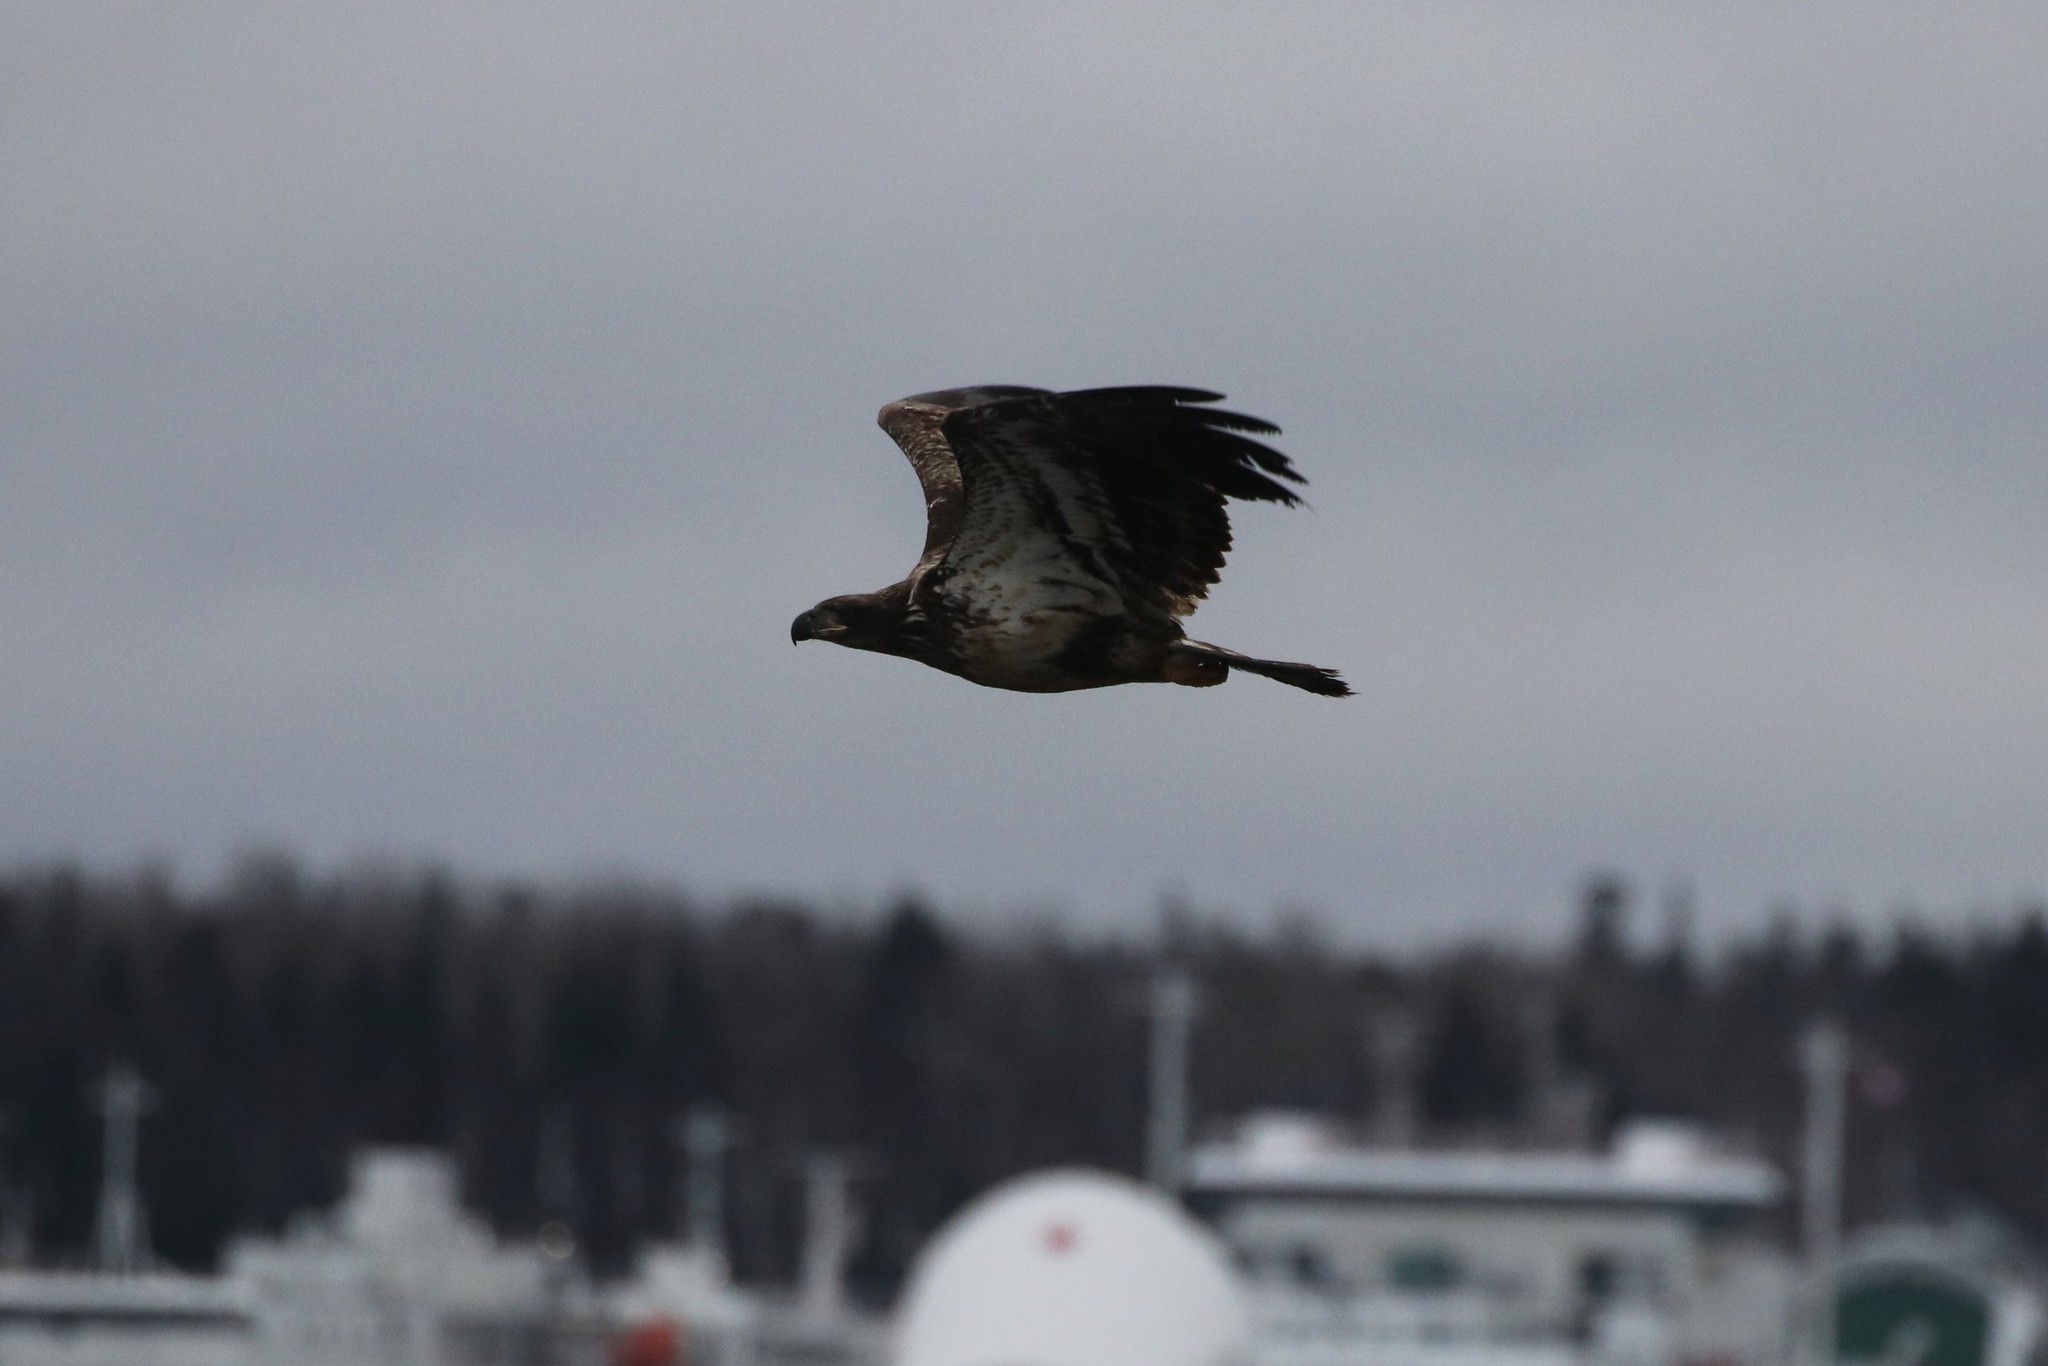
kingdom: Animalia
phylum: Chordata
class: Aves
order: Accipitriformes
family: Accipitridae
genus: Haliaeetus
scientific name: Haliaeetus leucocephalus
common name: Bald eagle
